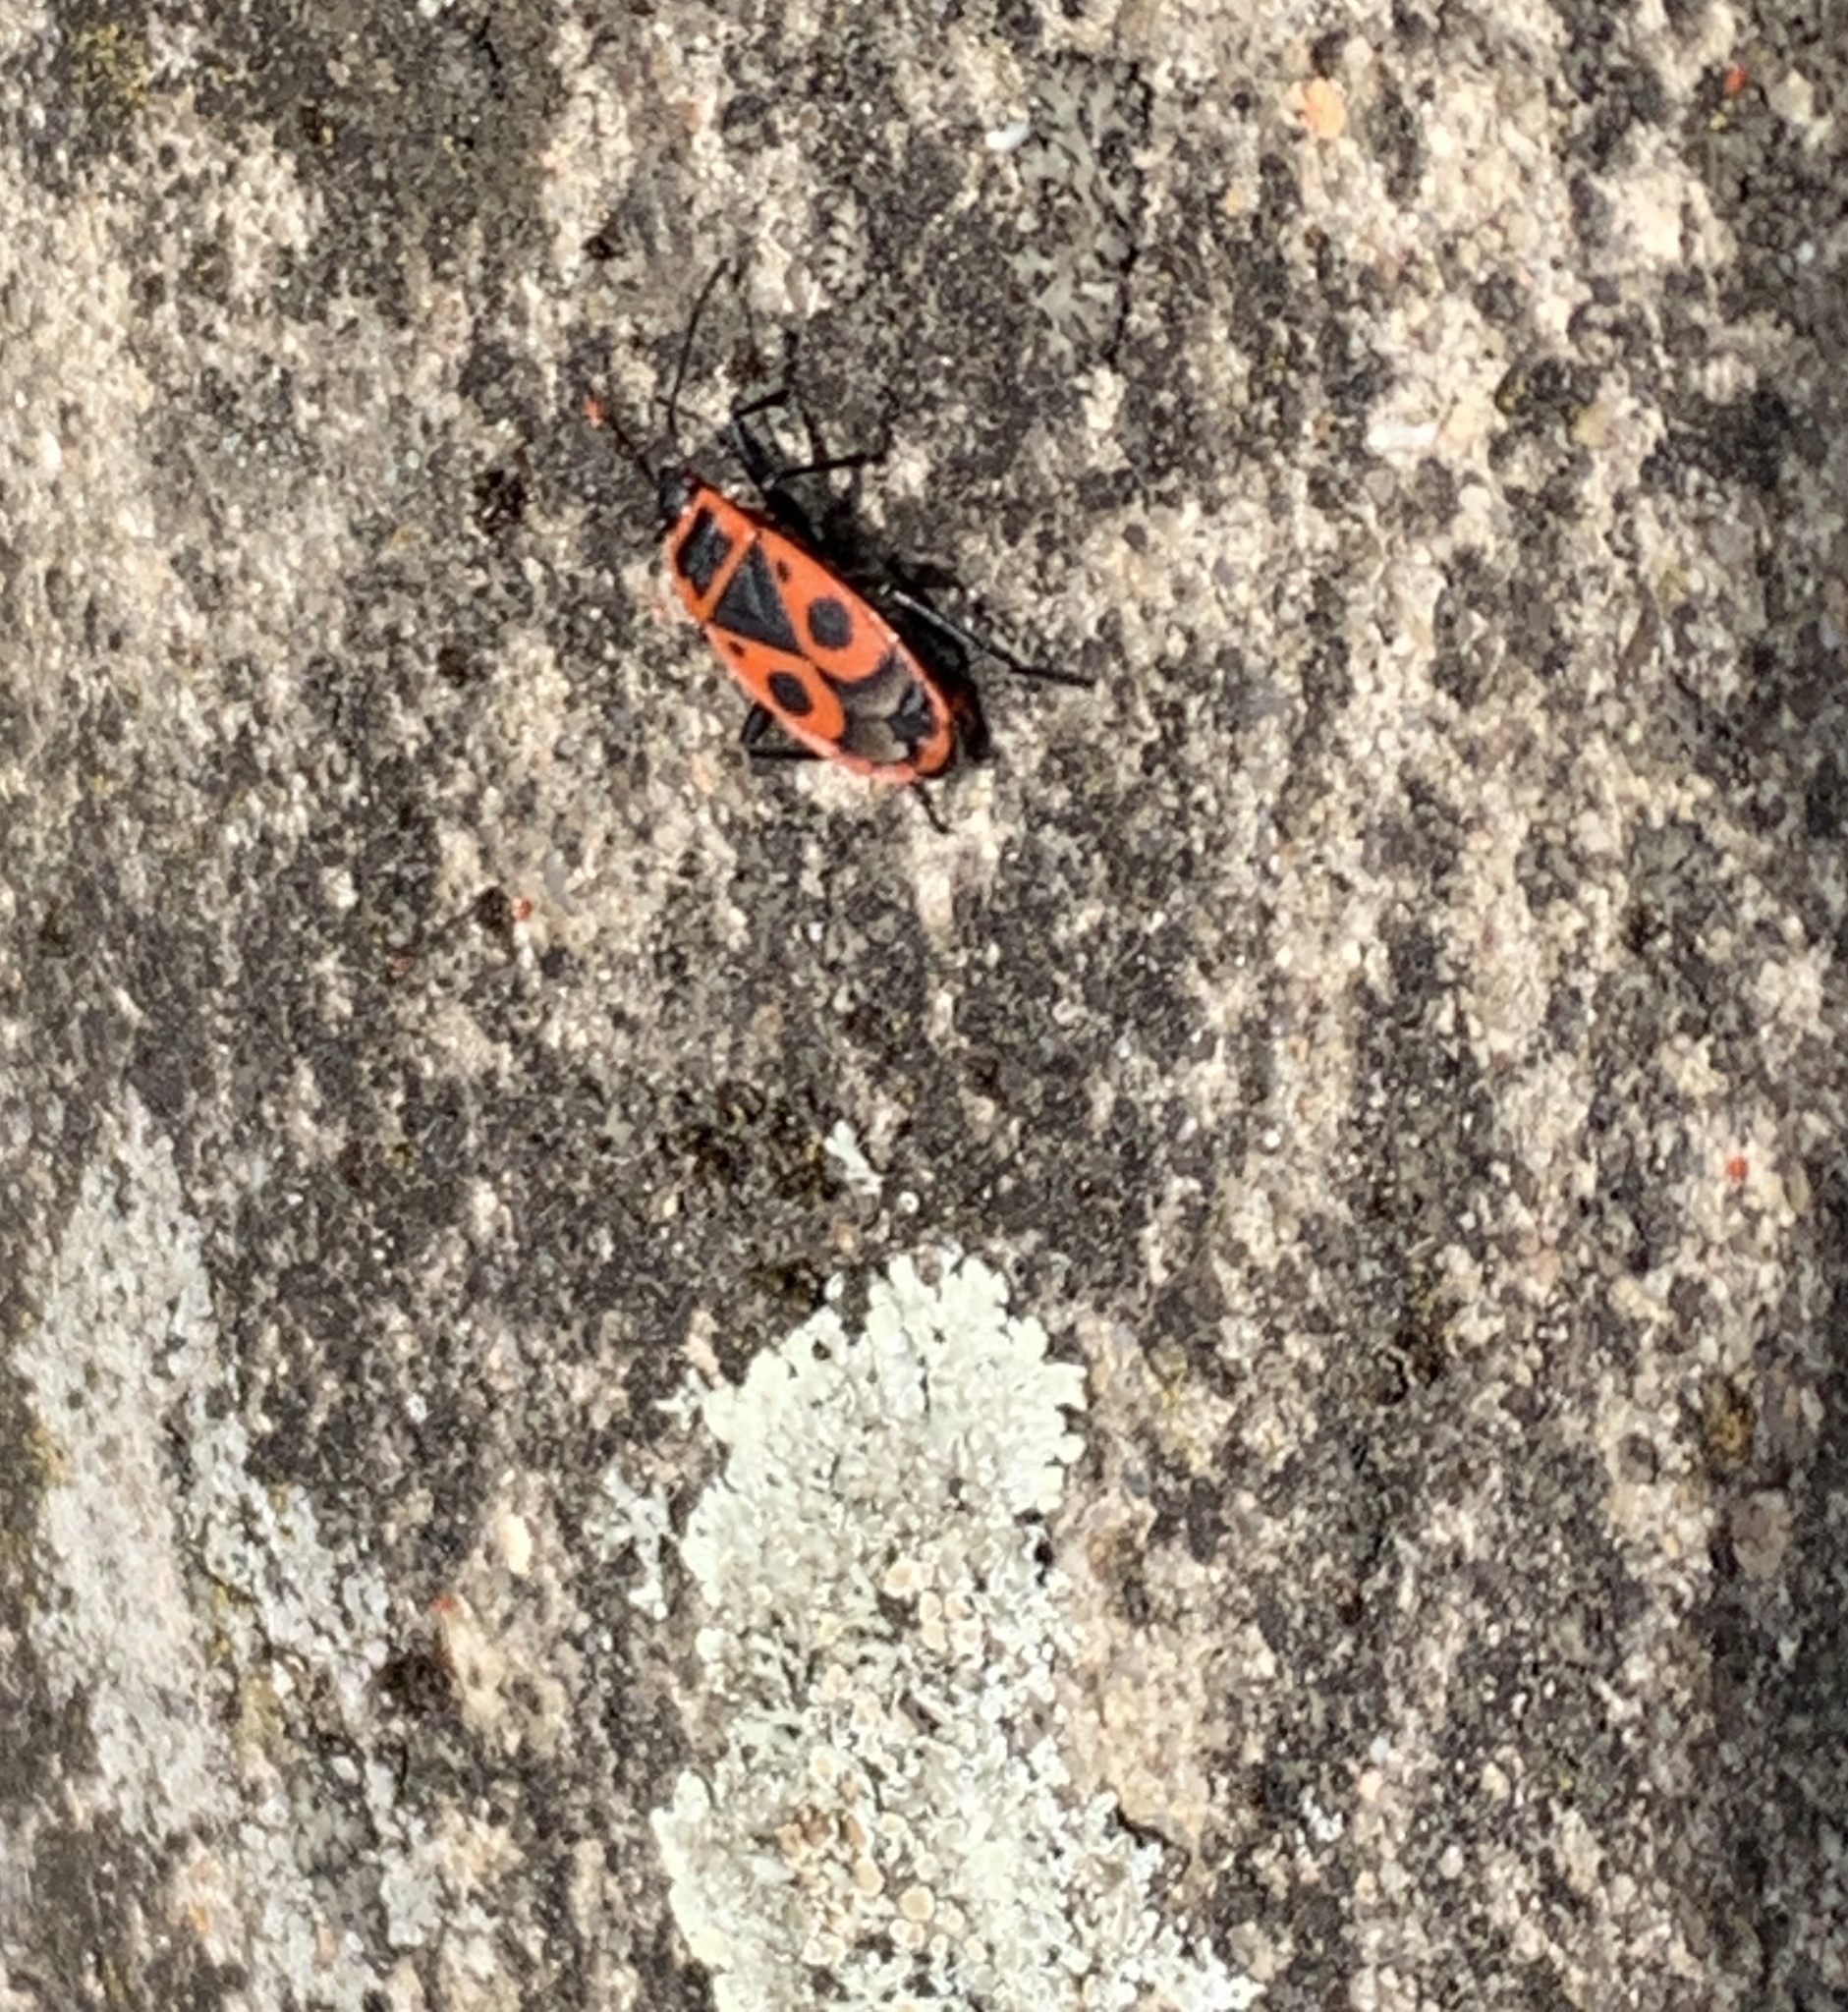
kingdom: Animalia
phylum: Arthropoda
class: Insecta
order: Hemiptera
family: Pyrrhocoridae
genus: Pyrrhocoris
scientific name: Pyrrhocoris apterus
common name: Firebug
